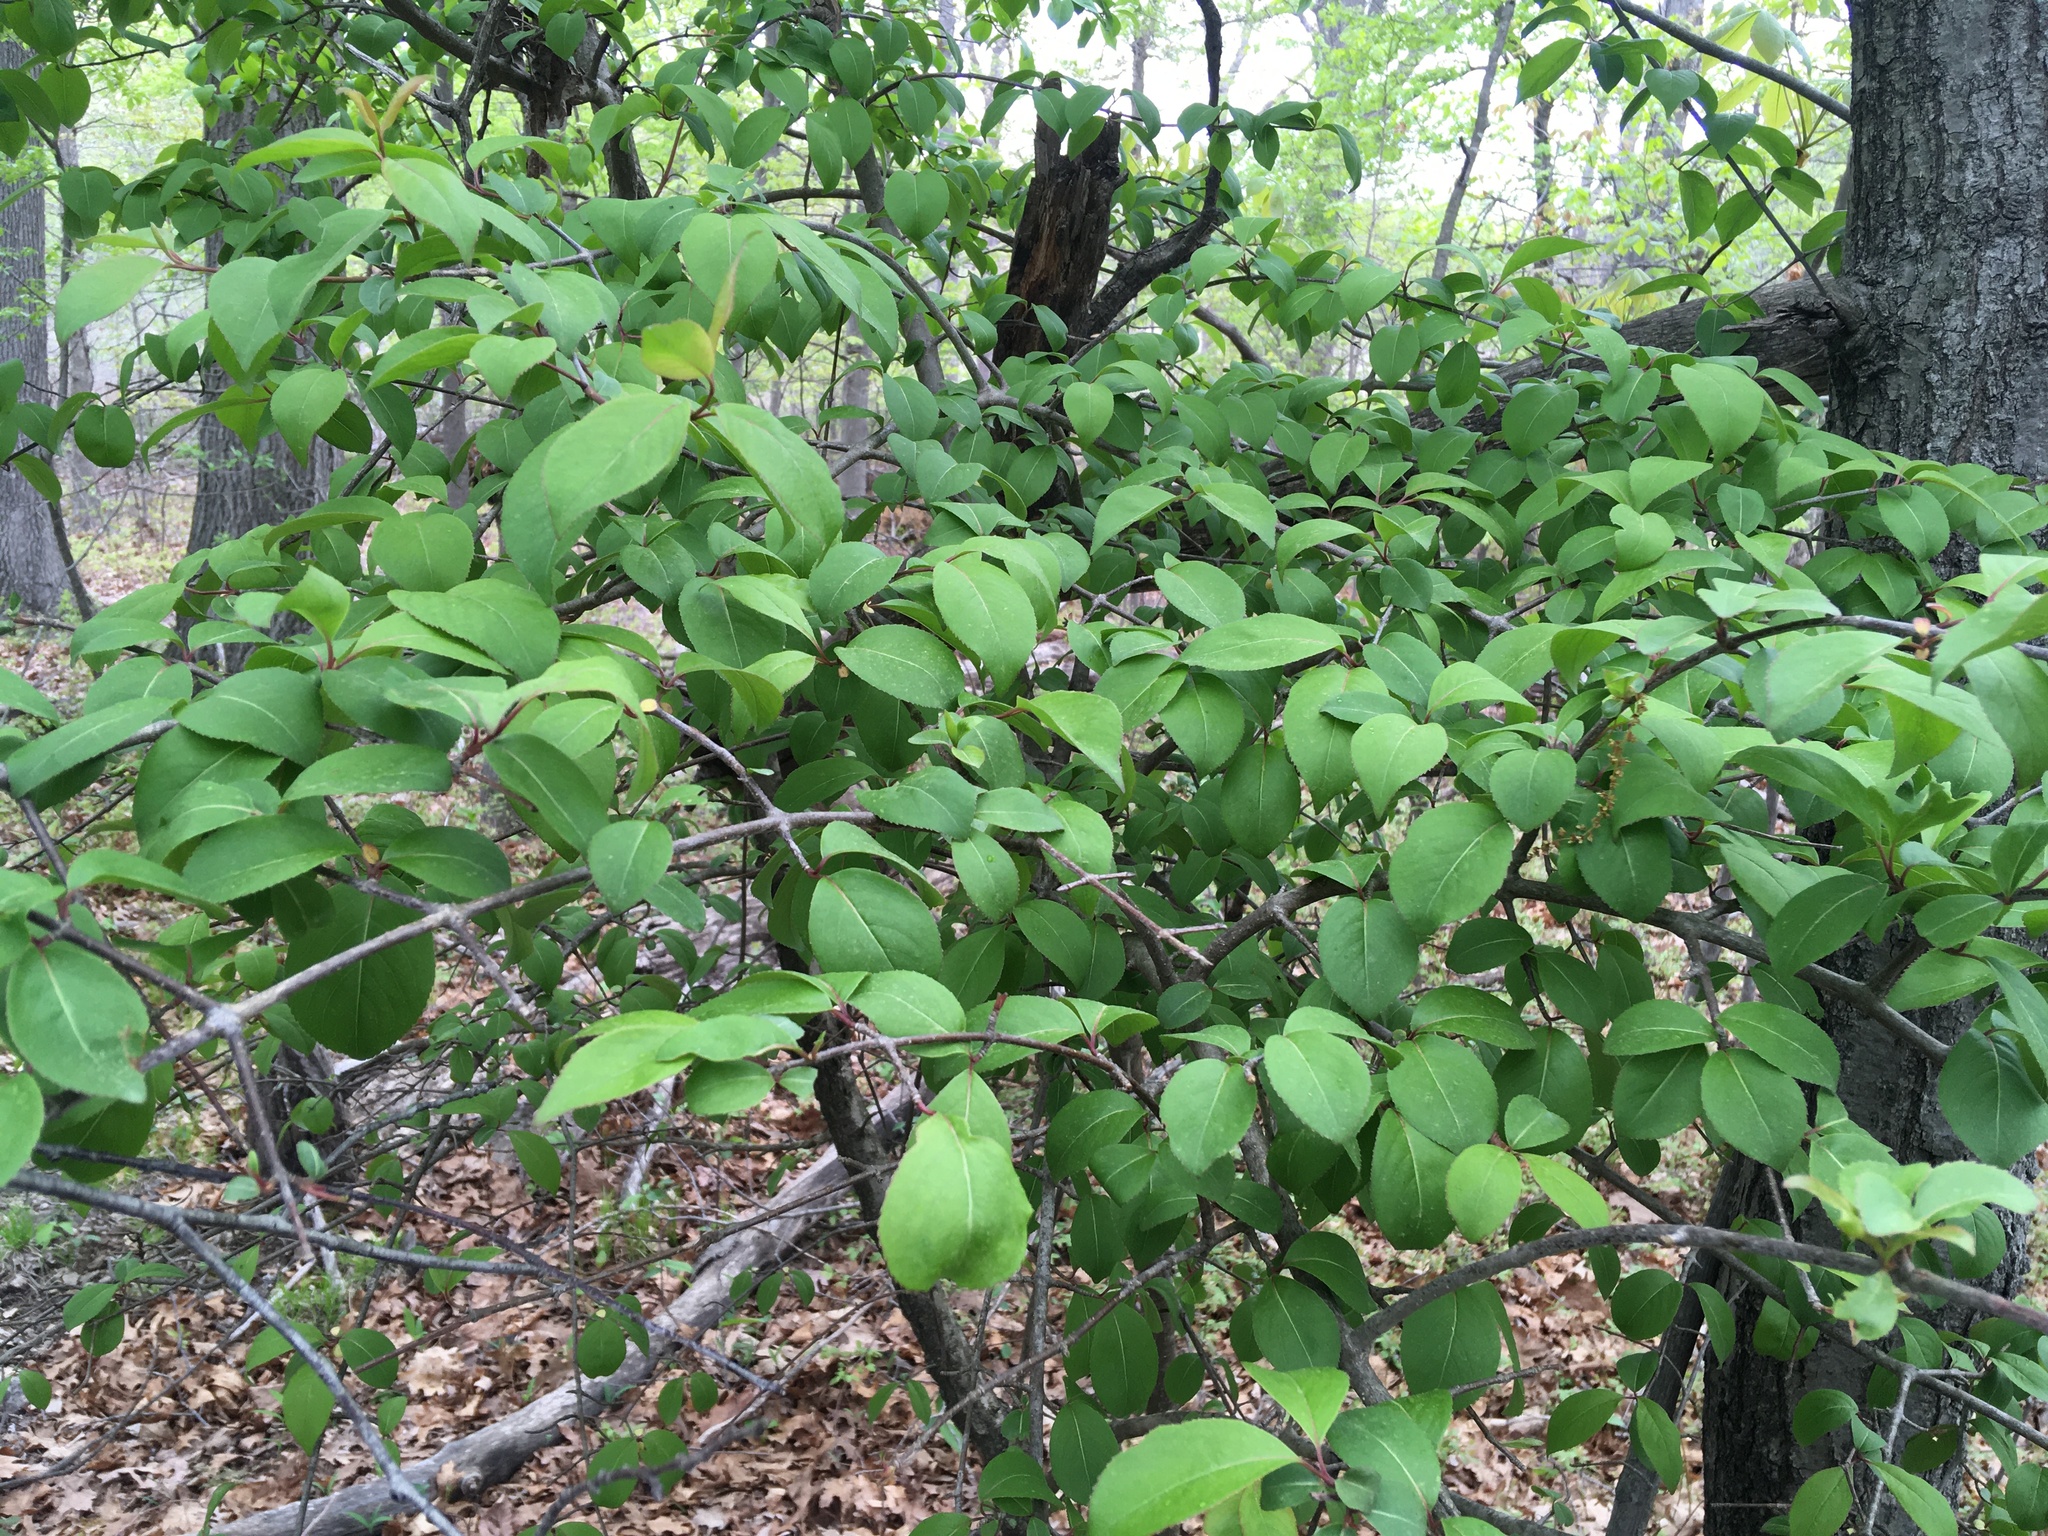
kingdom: Plantae
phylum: Tracheophyta
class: Magnoliopsida
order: Dipsacales
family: Viburnaceae
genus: Viburnum
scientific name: Viburnum prunifolium
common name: Black haw
